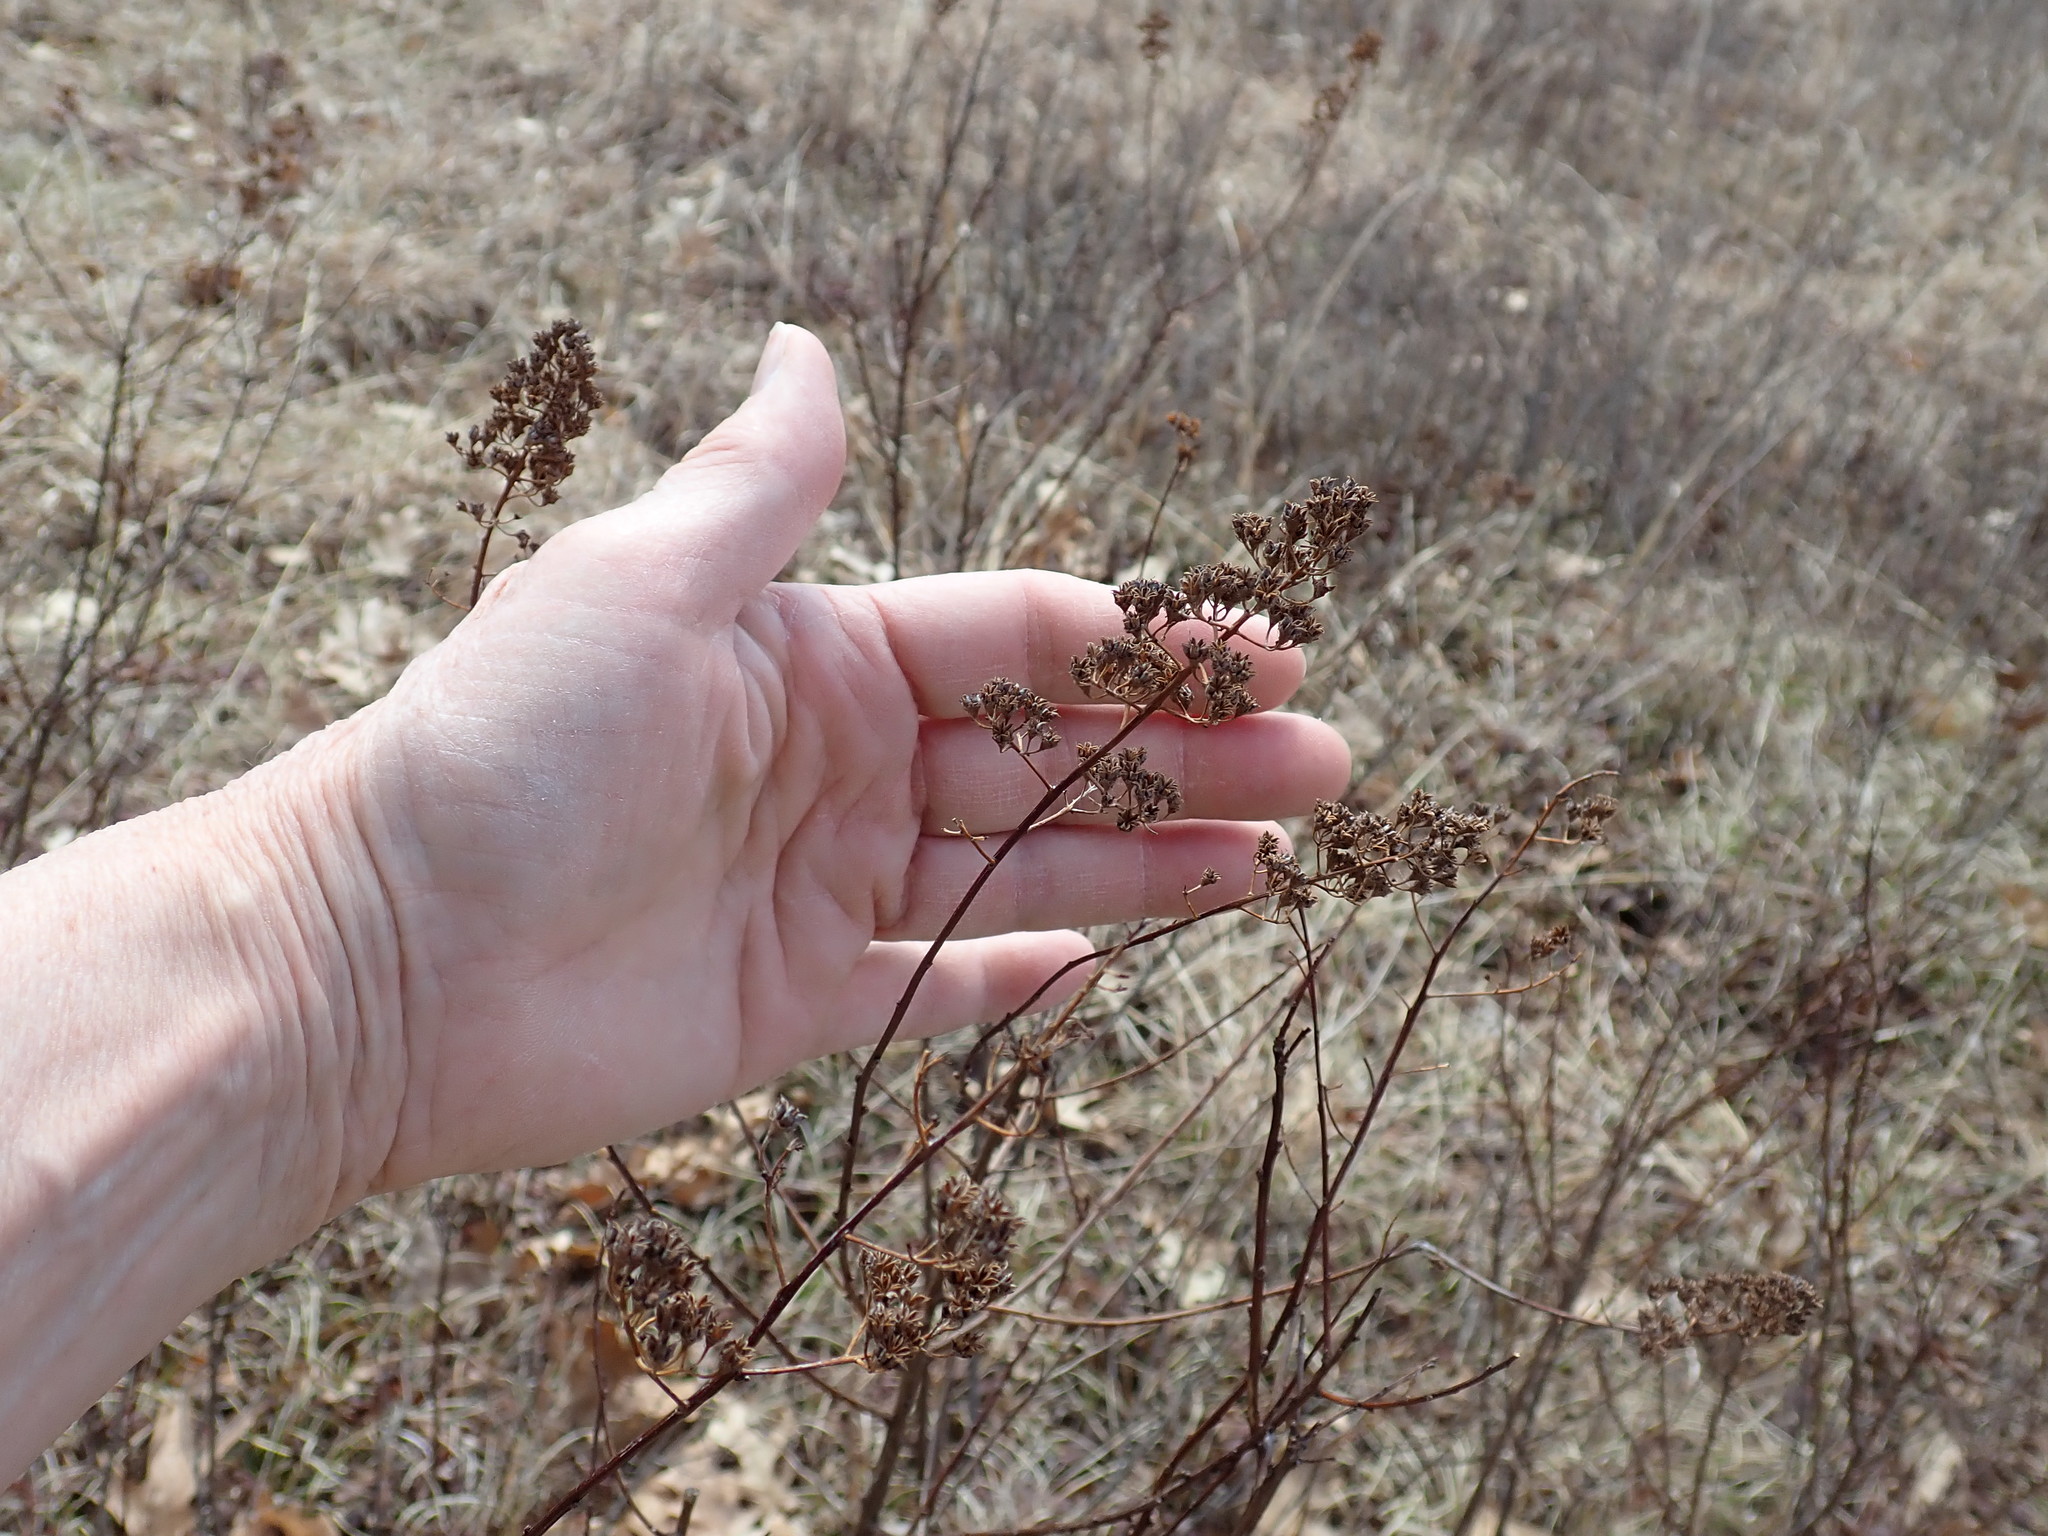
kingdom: Plantae
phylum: Tracheophyta
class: Magnoliopsida
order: Rosales
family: Rosaceae
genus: Spiraea
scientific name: Spiraea alba
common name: Pale bridewort
